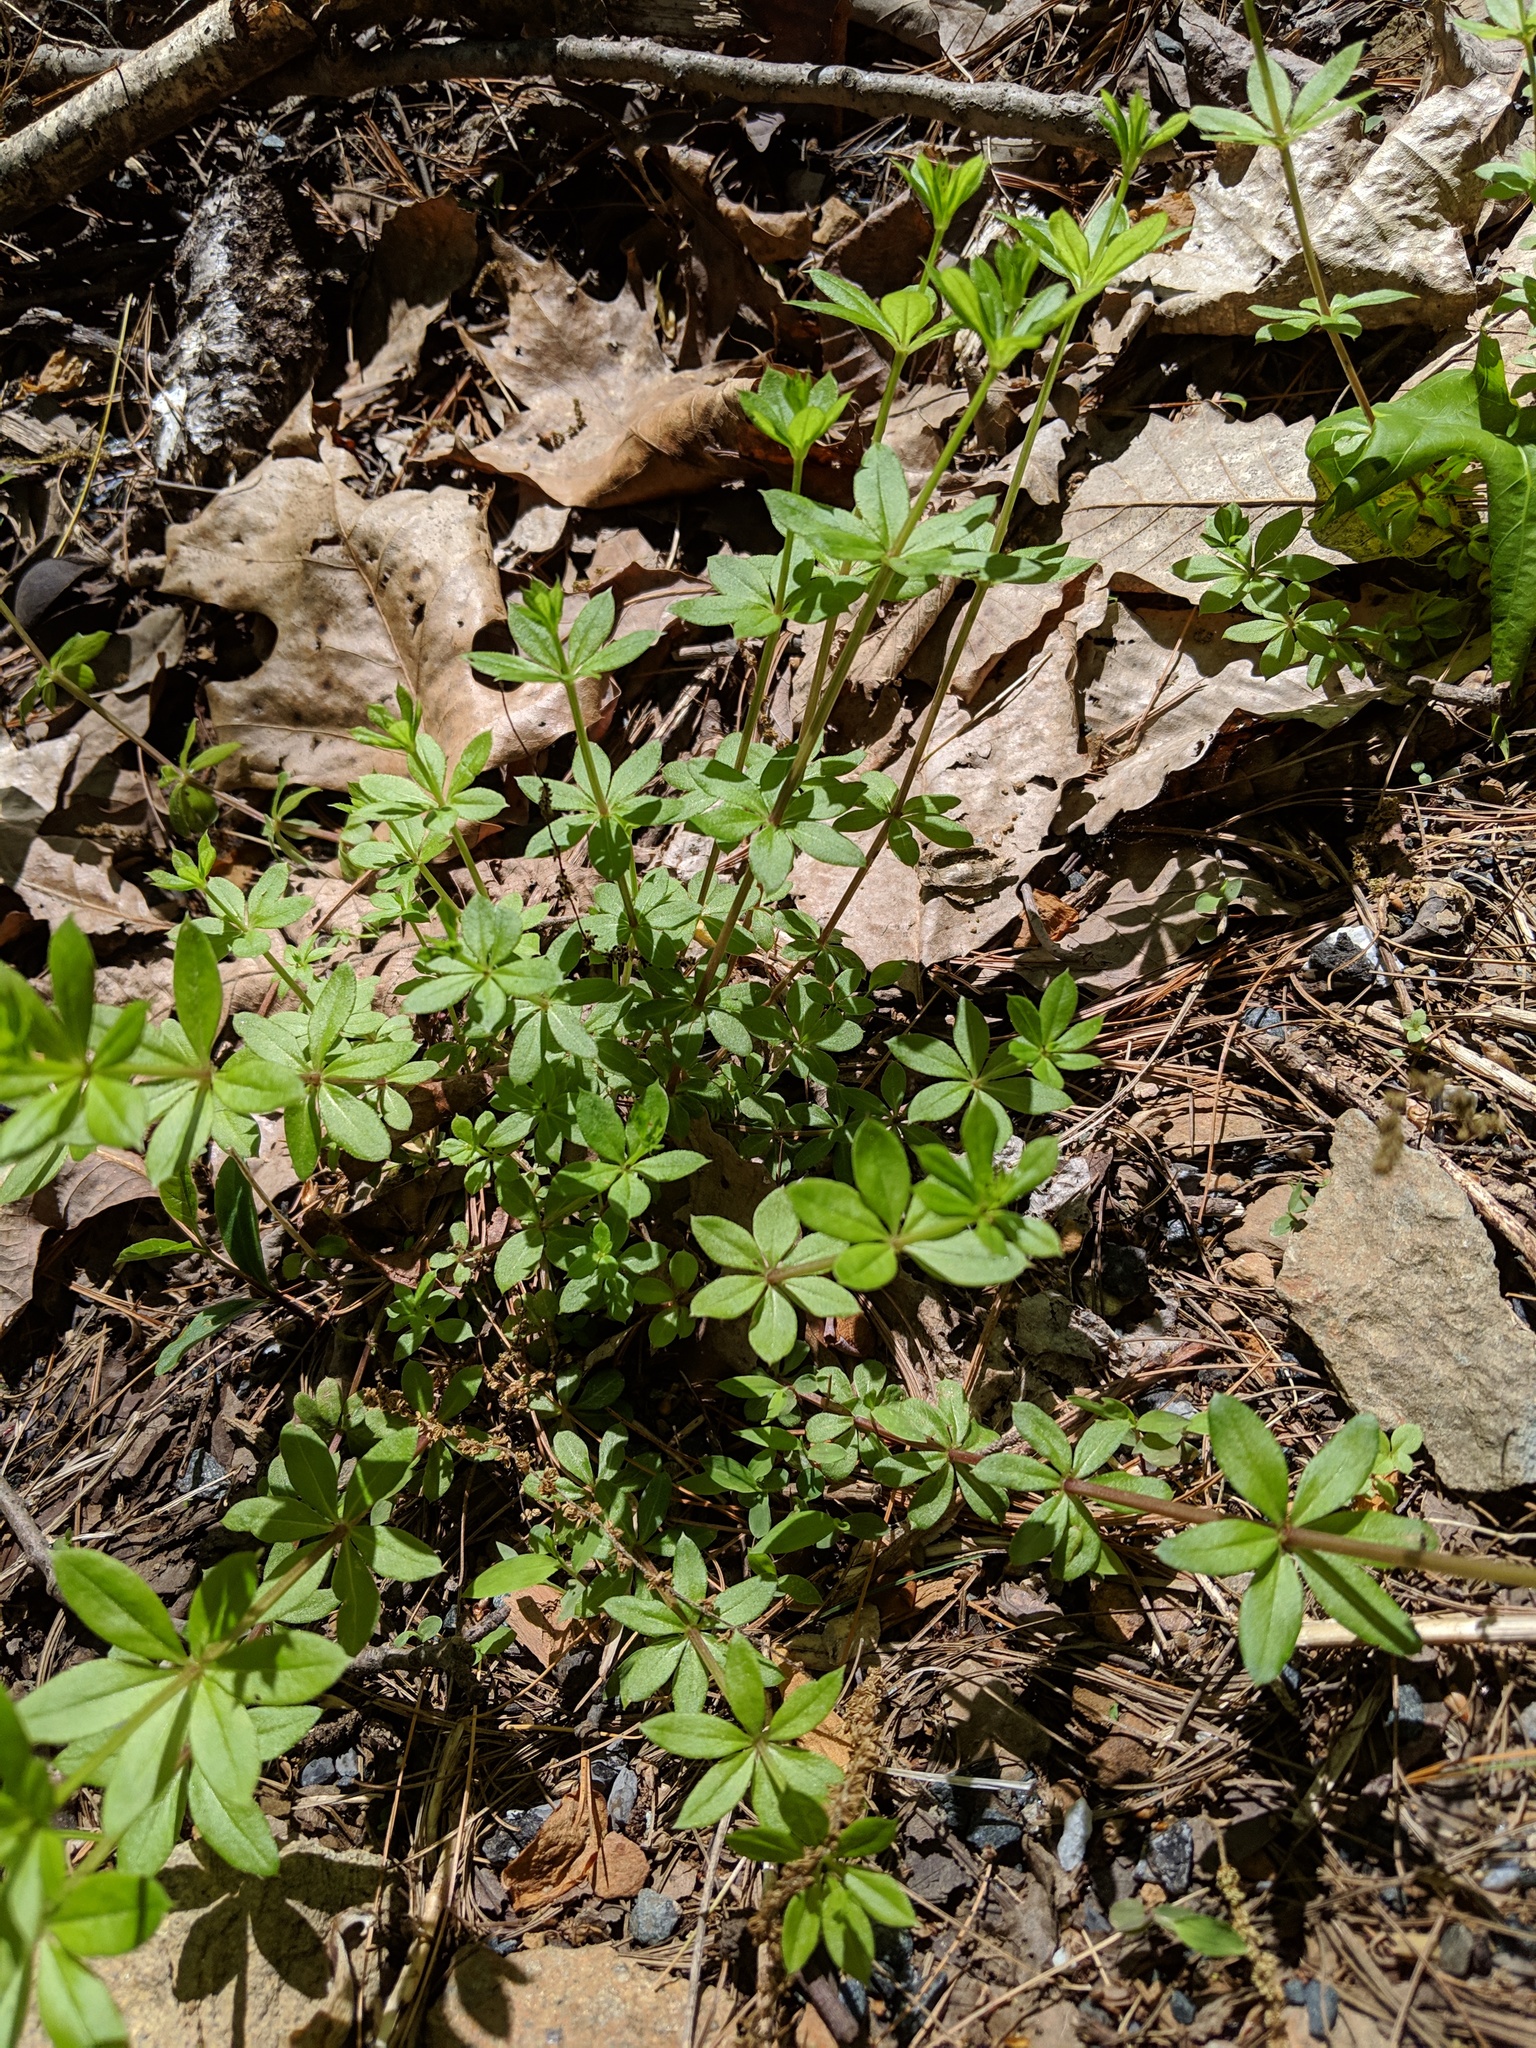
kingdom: Plantae
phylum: Tracheophyta
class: Magnoliopsida
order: Gentianales
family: Rubiaceae
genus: Galium
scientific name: Galium triflorum
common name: Fragrant bedstraw
